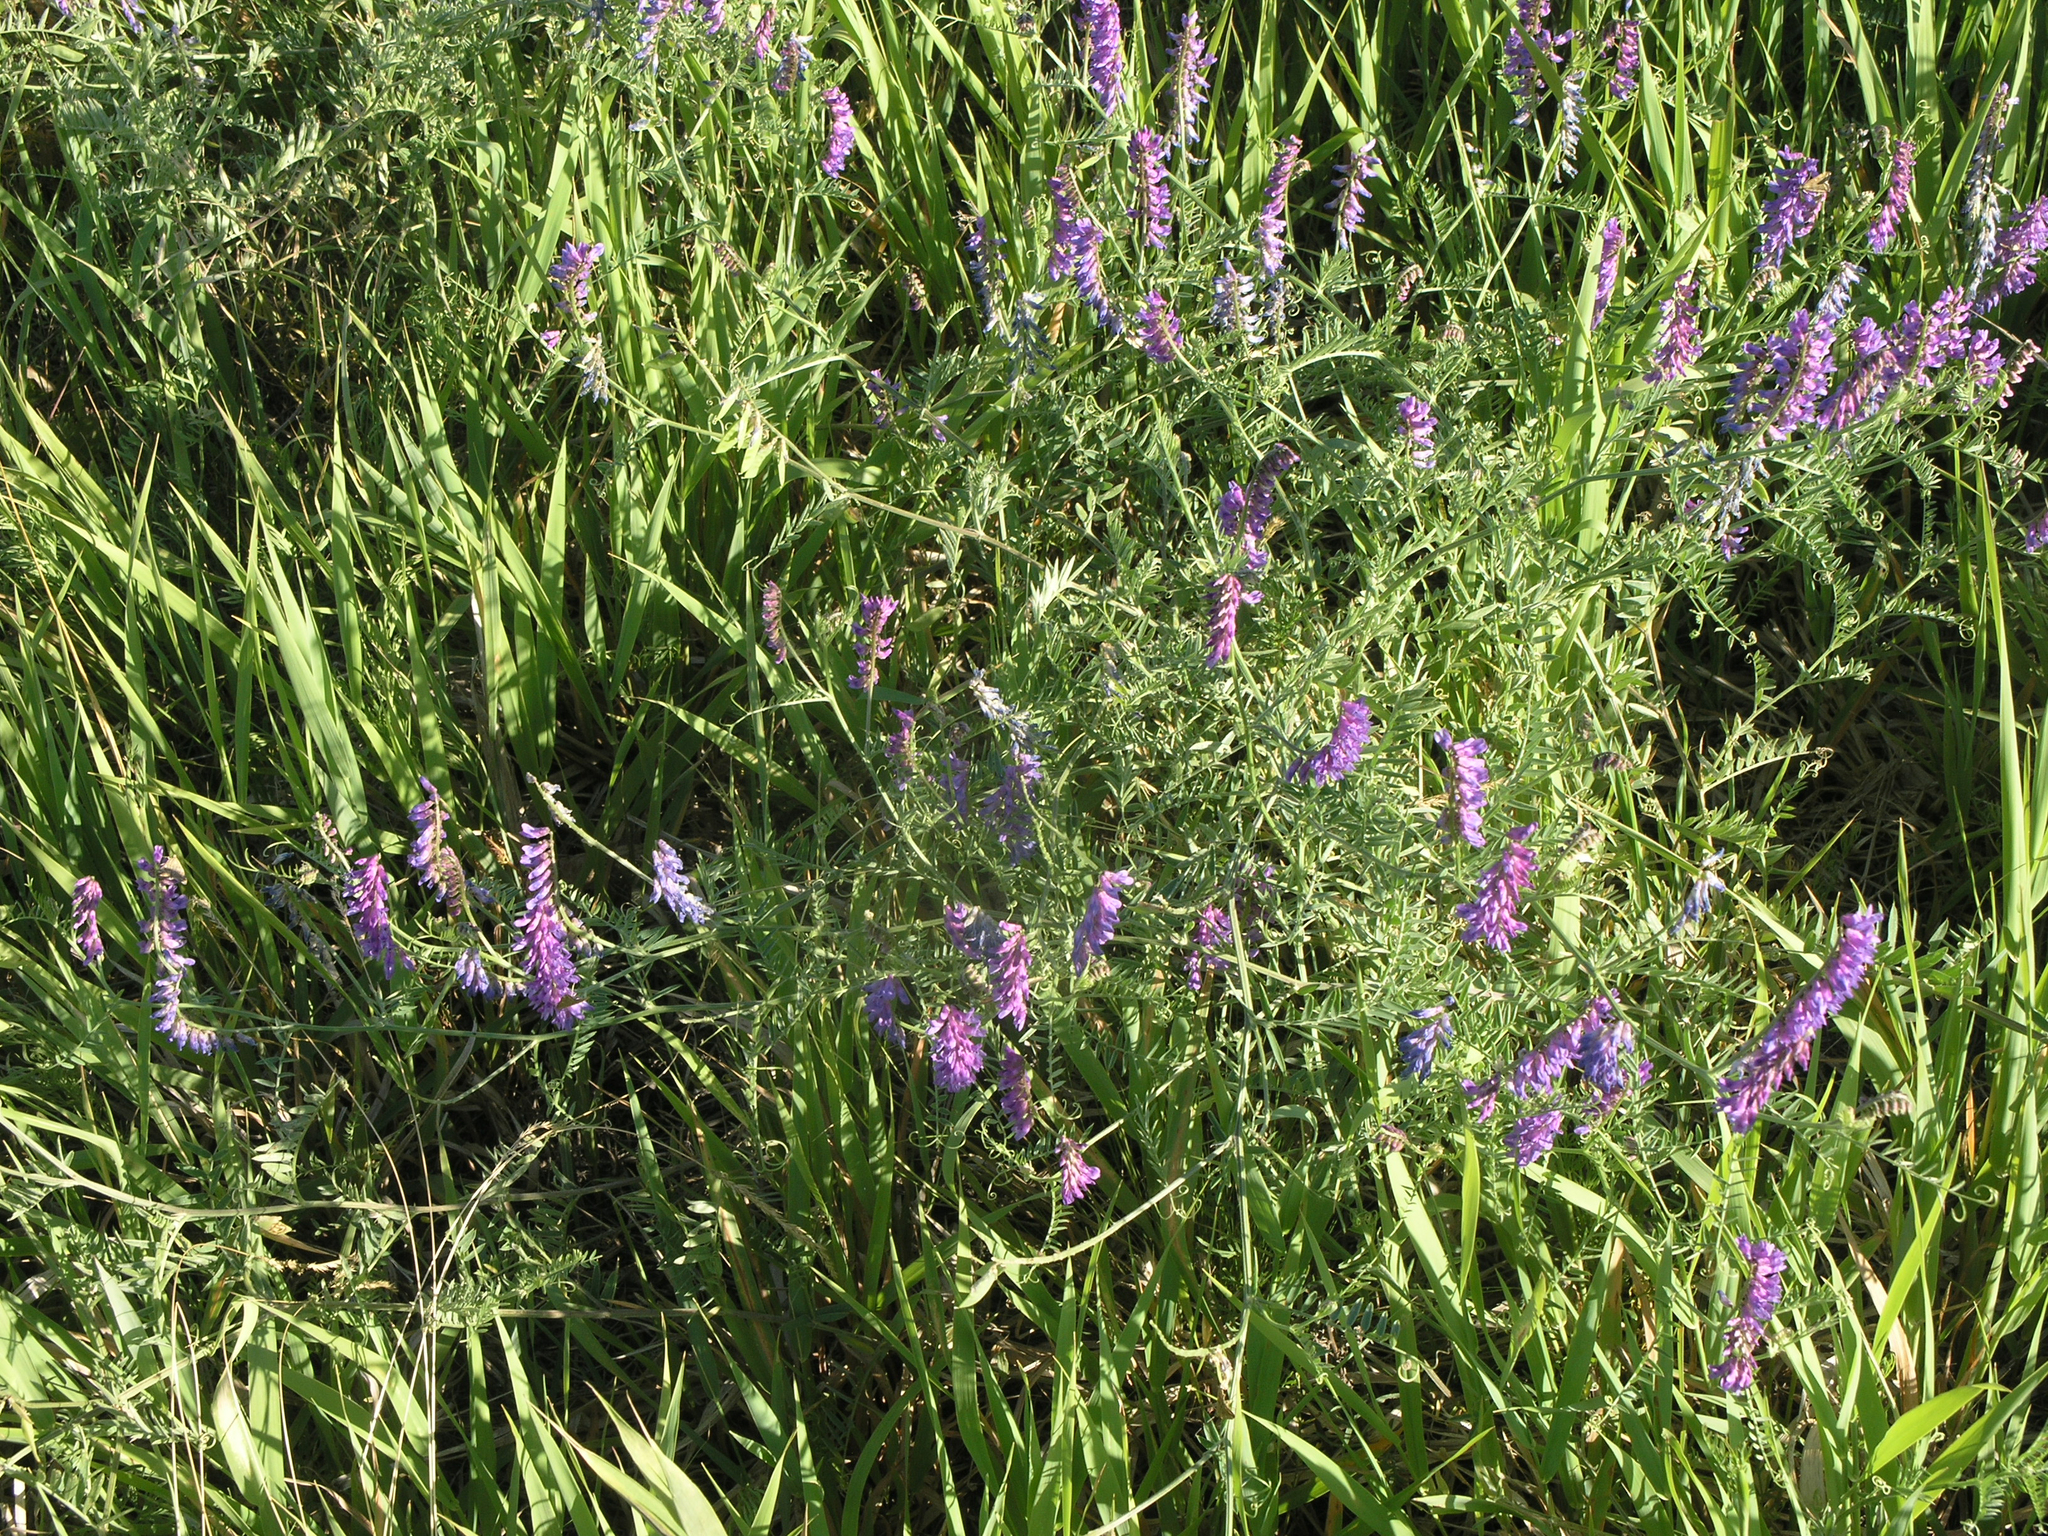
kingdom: Plantae
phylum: Tracheophyta
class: Magnoliopsida
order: Fabales
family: Fabaceae
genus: Vicia
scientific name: Vicia cracca
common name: Bird vetch
